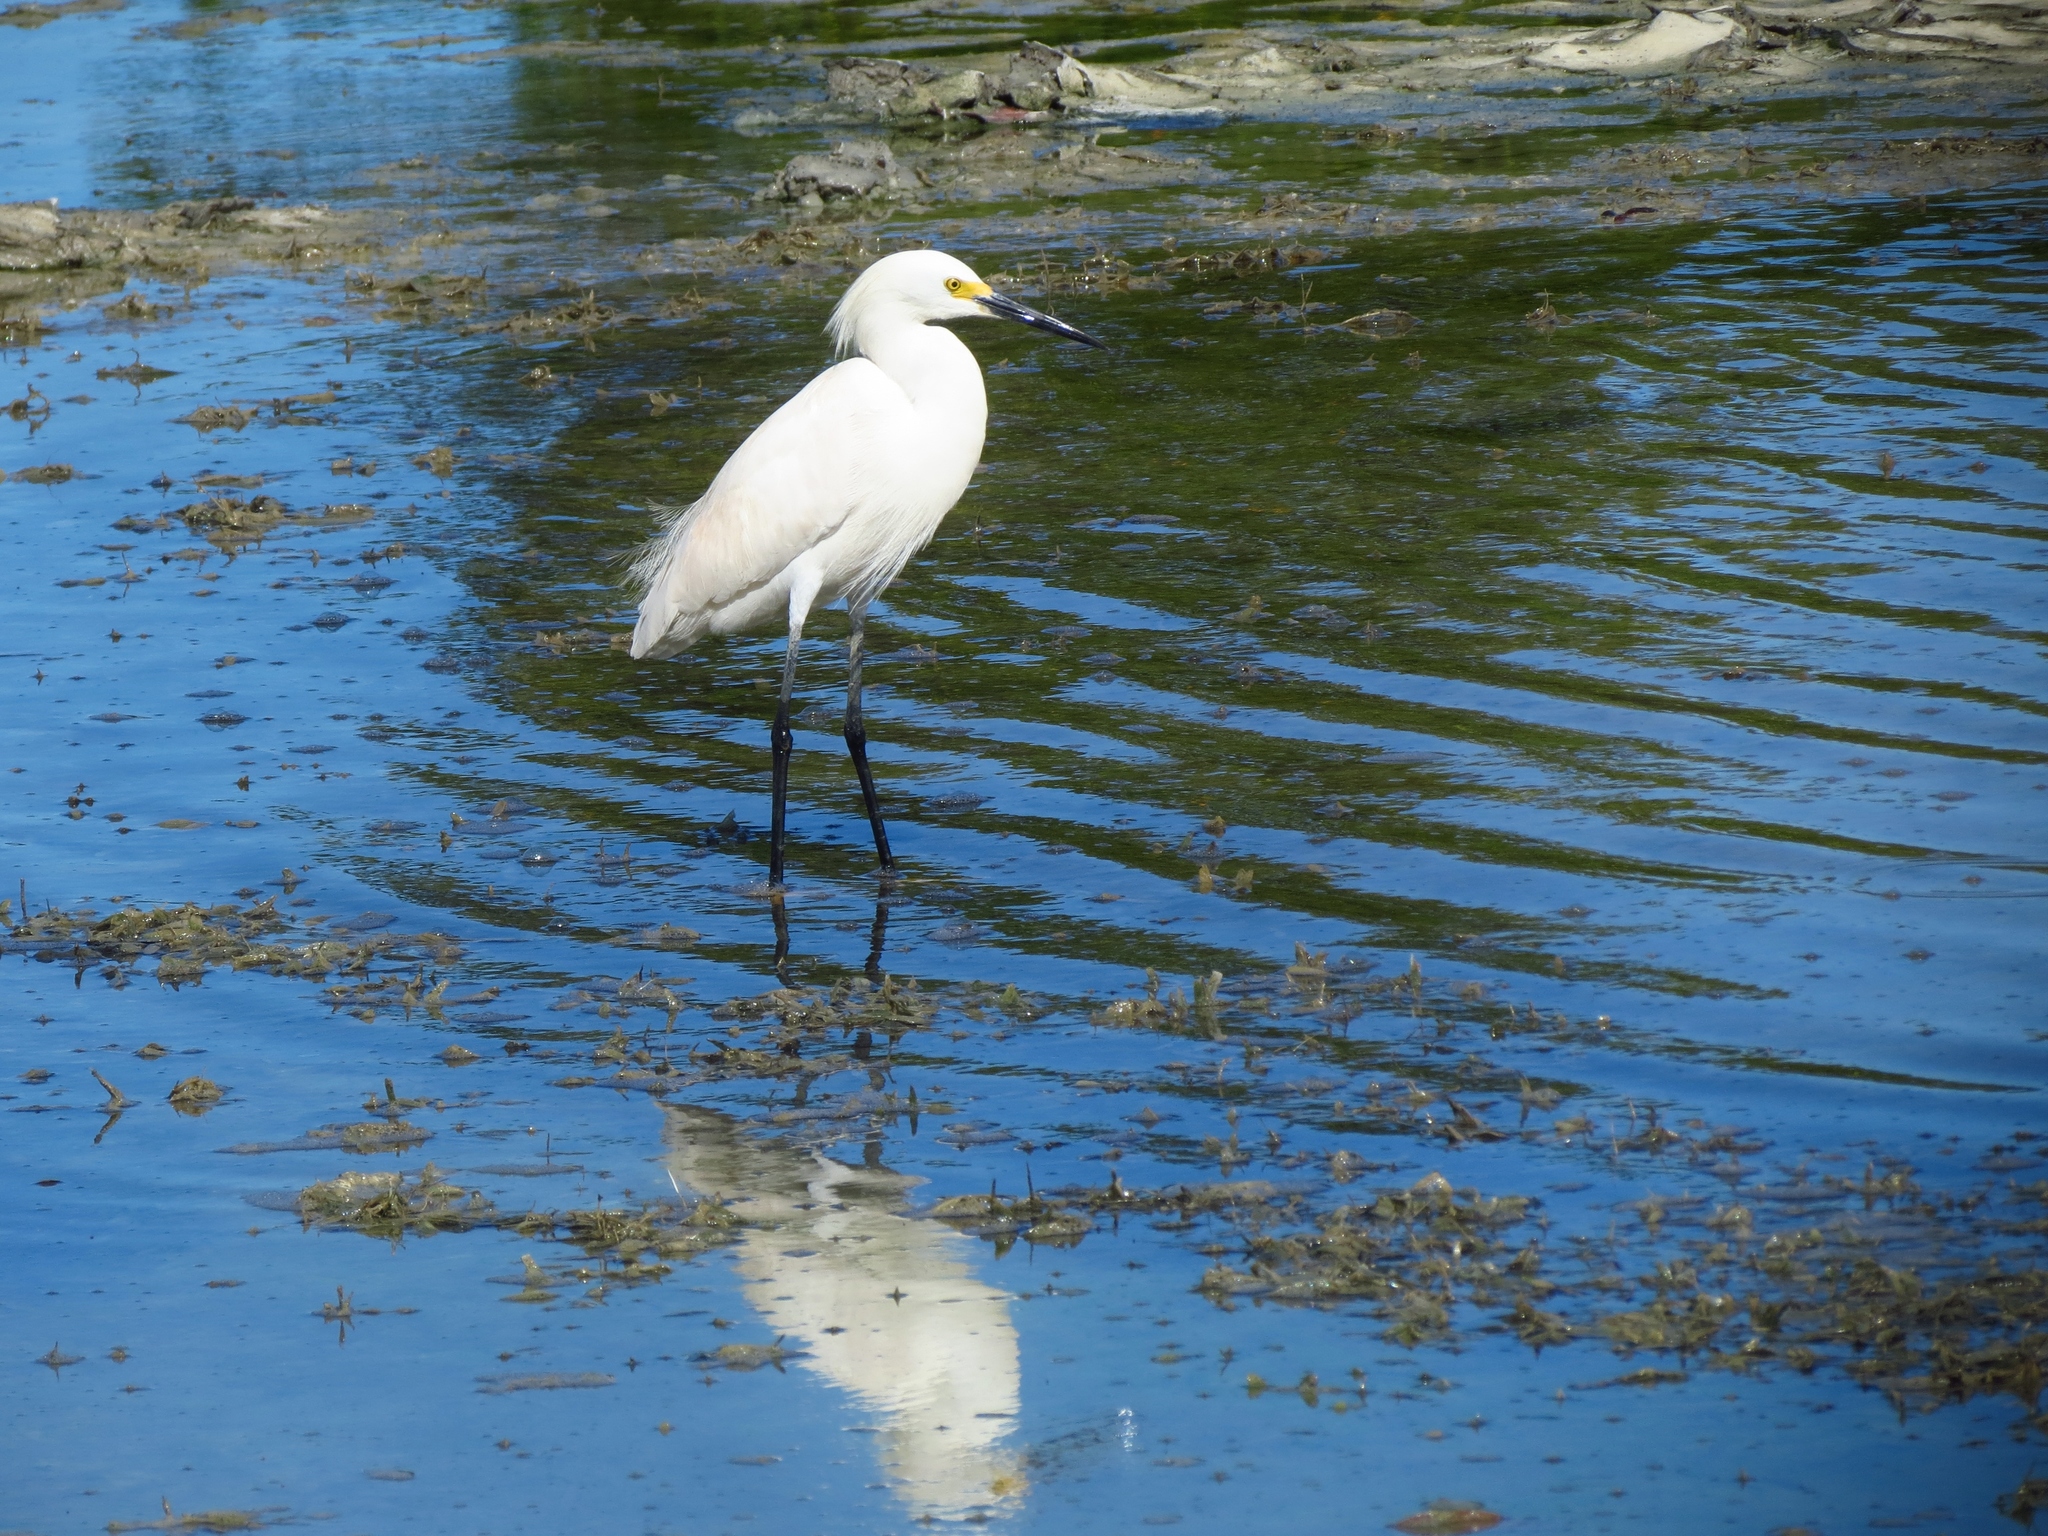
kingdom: Animalia
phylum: Chordata
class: Aves
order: Pelecaniformes
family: Ardeidae
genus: Egretta
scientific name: Egretta thula
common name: Snowy egret
